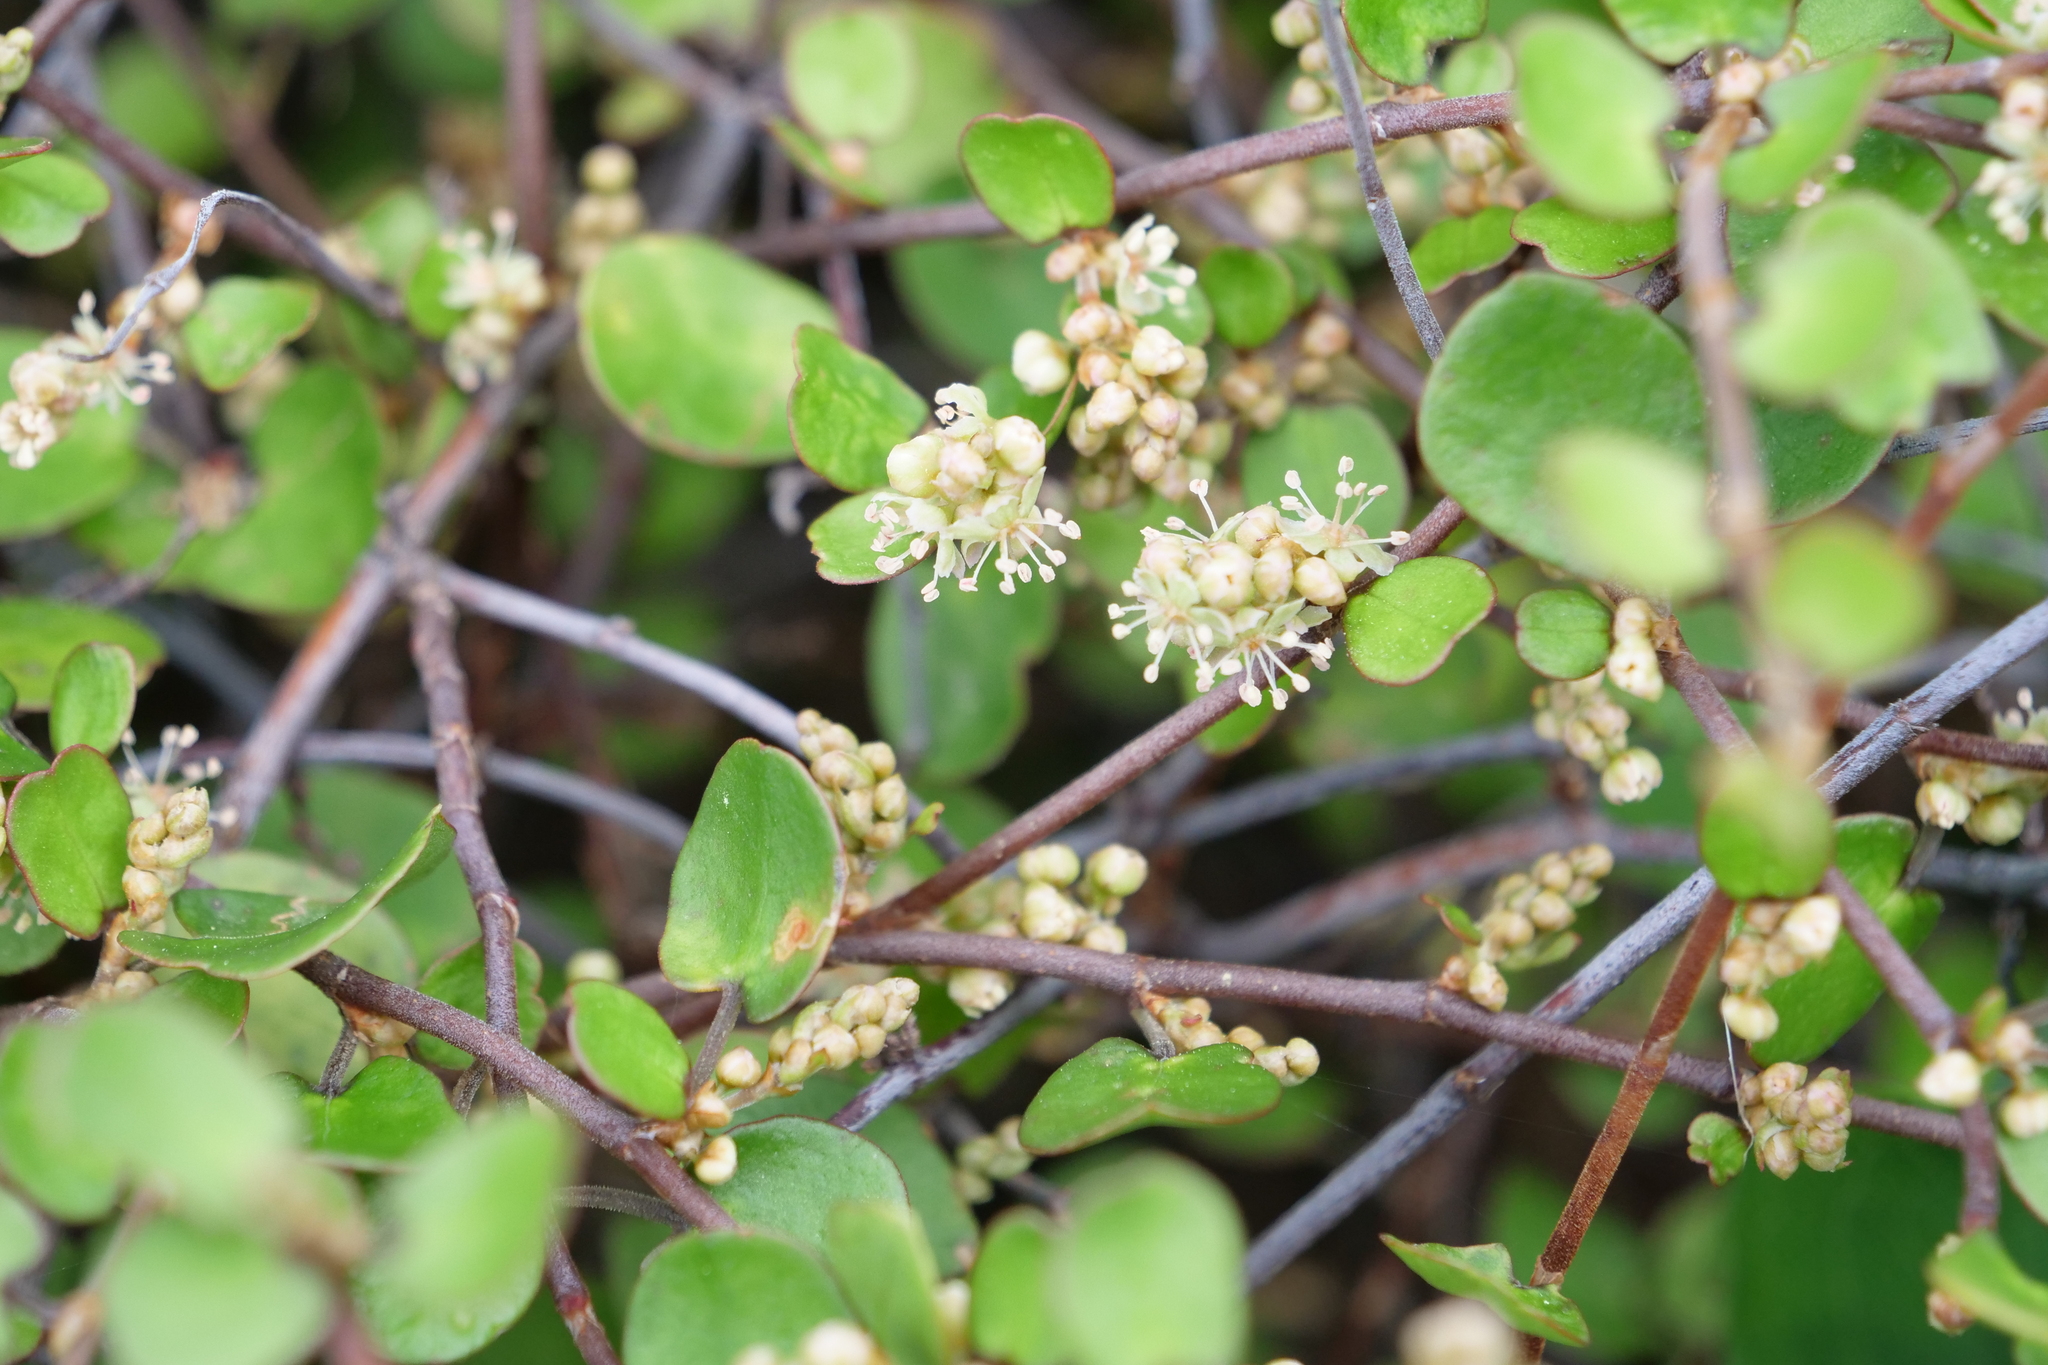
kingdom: Plantae
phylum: Tracheophyta
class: Magnoliopsida
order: Caryophyllales
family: Polygonaceae
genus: Muehlenbeckia
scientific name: Muehlenbeckia complexa
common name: Wireplant
